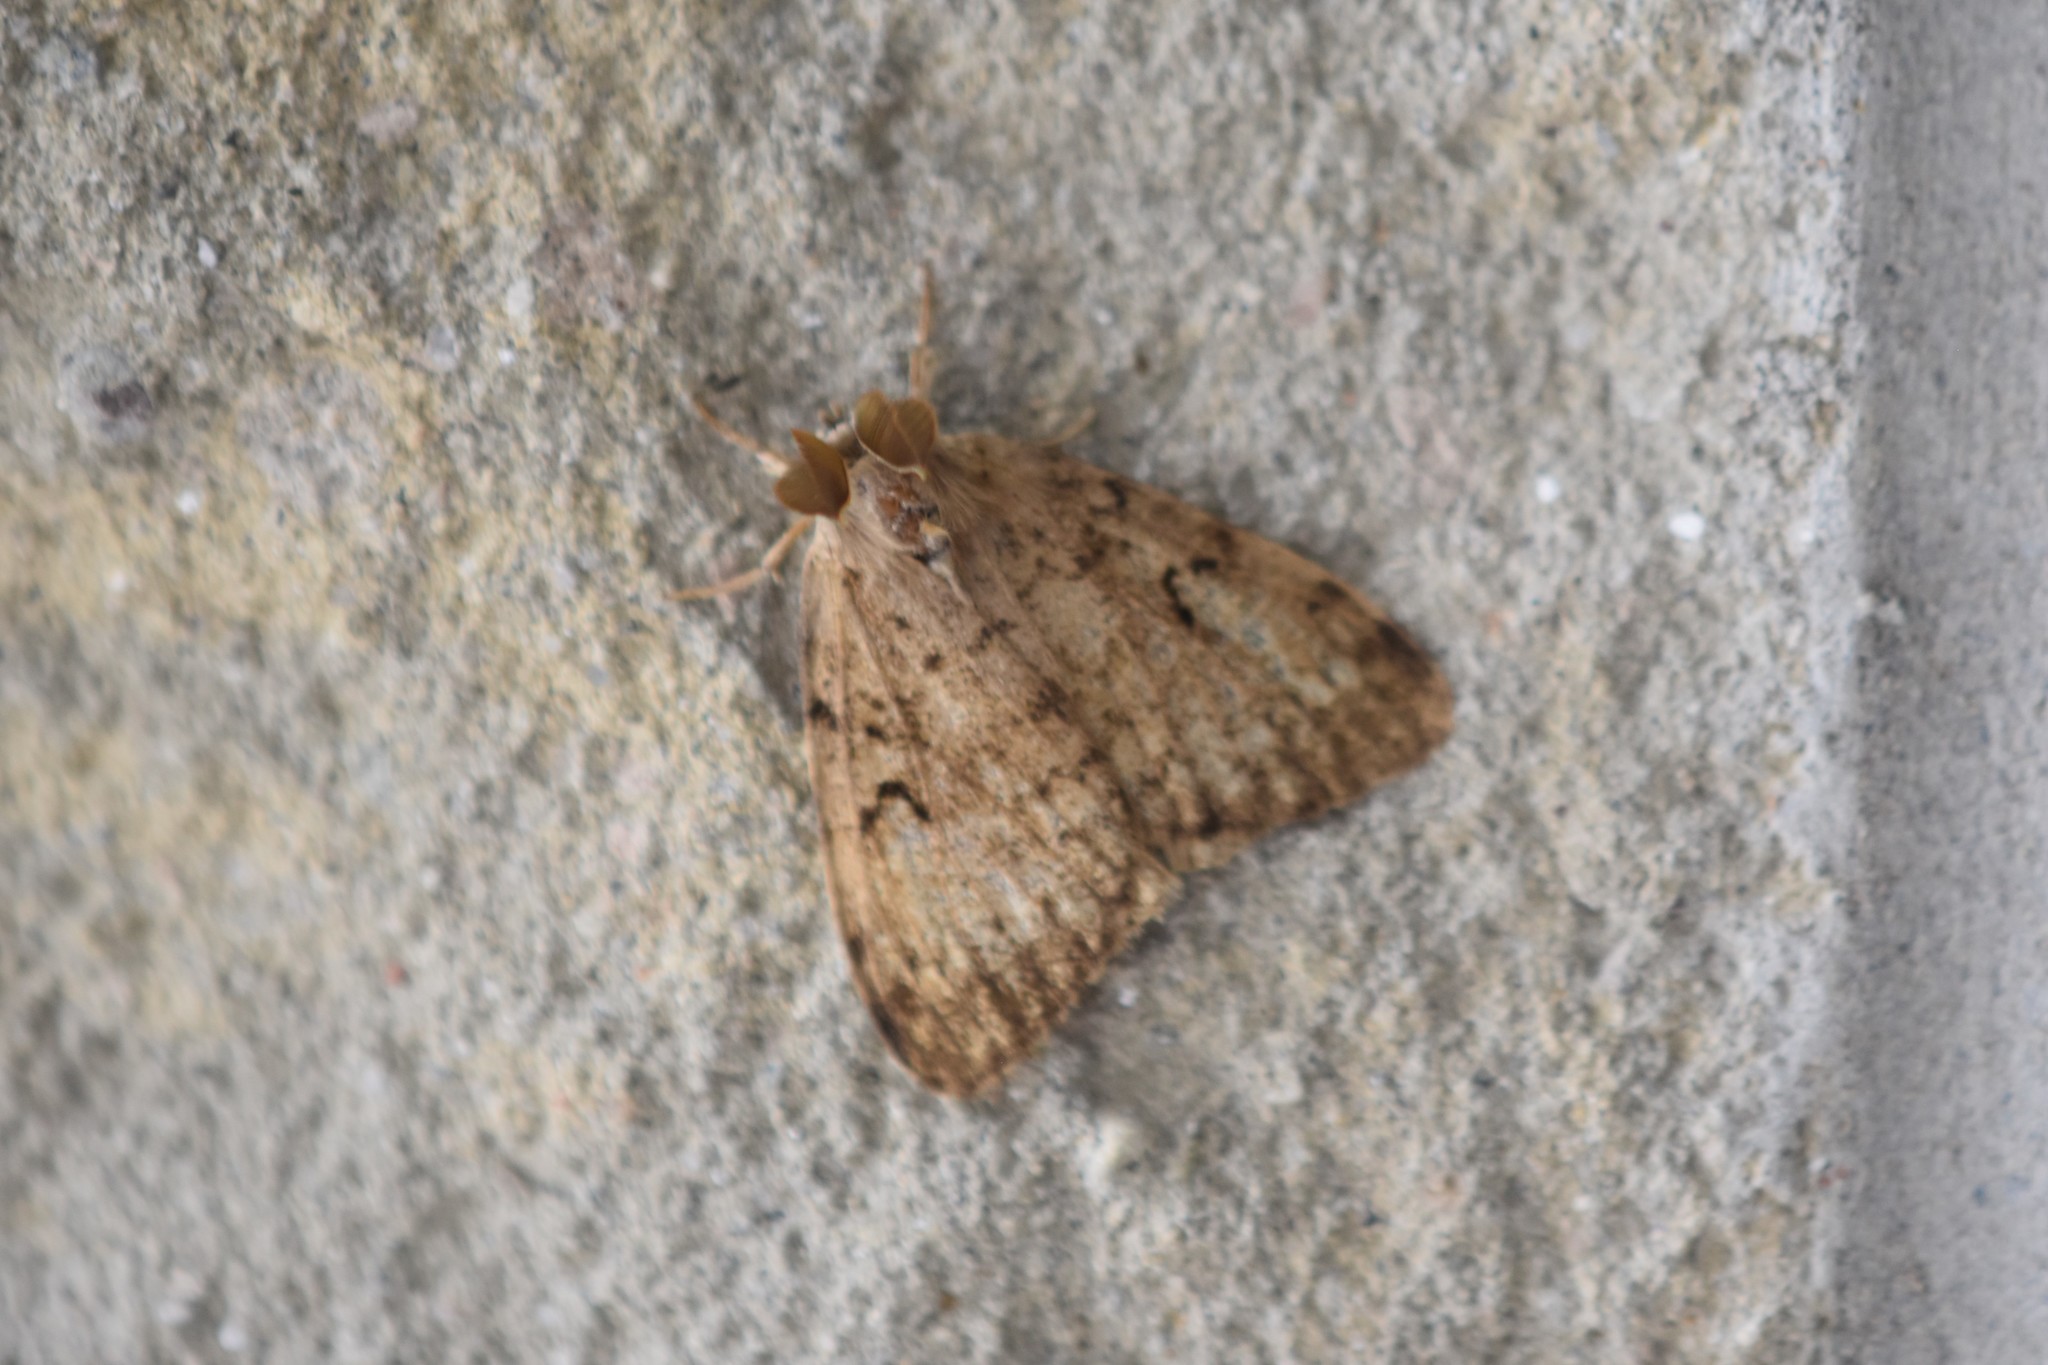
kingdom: Animalia
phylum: Arthropoda
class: Insecta
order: Lepidoptera
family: Erebidae
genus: Lymantria
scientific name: Lymantria dispar
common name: Gypsy moth
